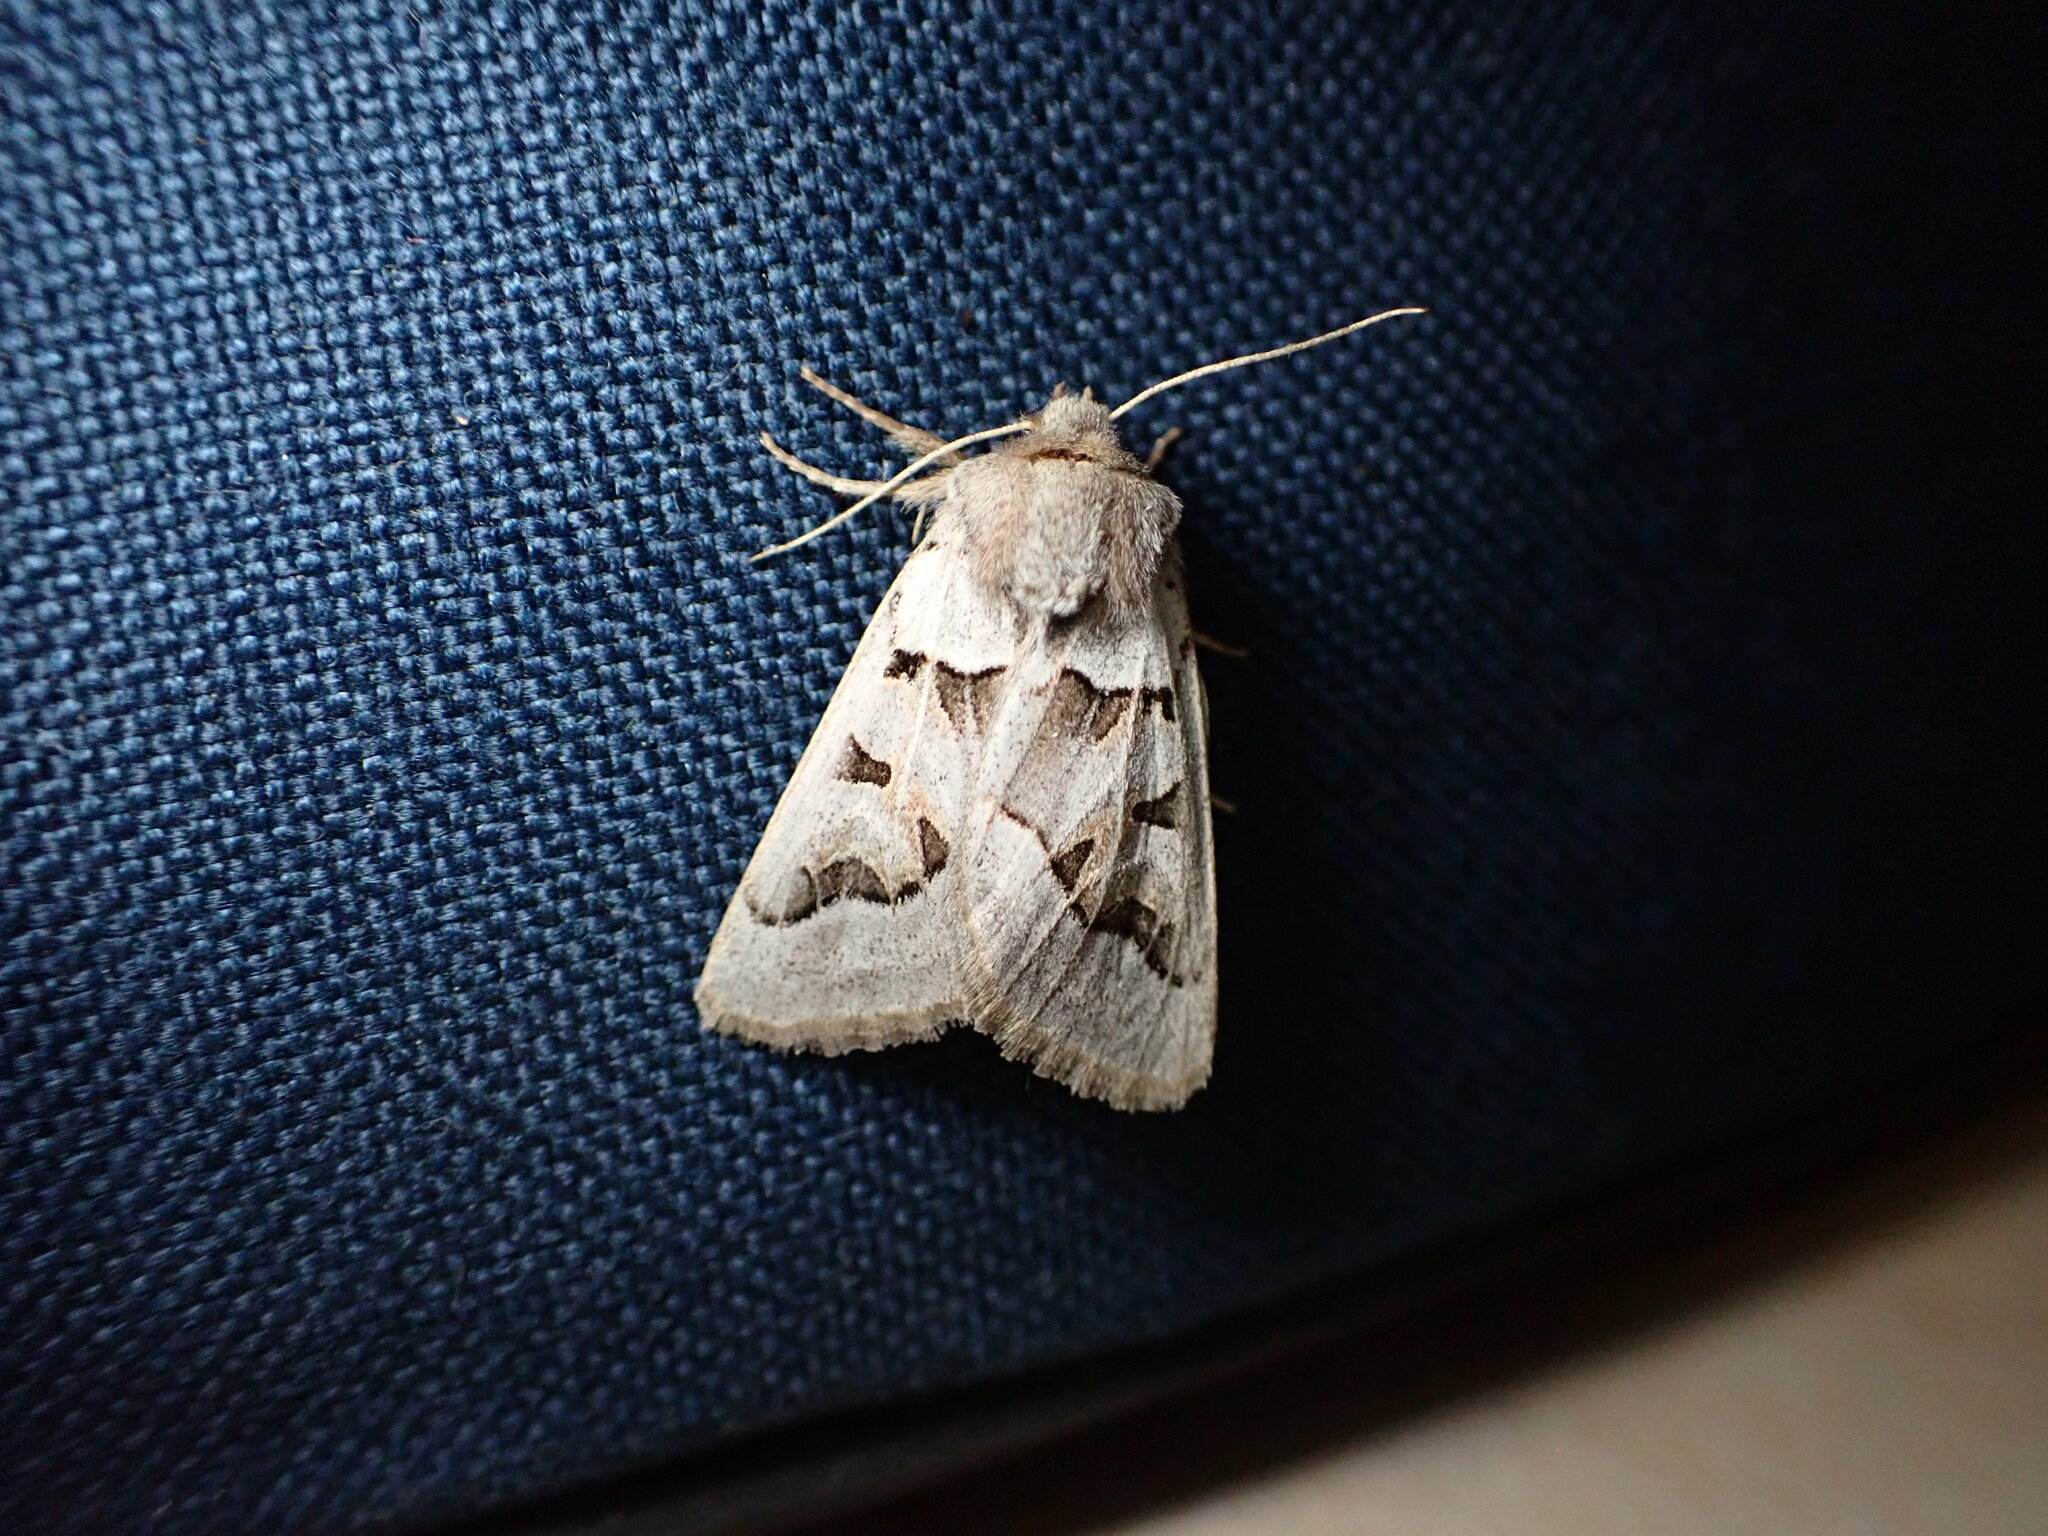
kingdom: Animalia
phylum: Arthropoda
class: Insecta
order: Lepidoptera
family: Noctuidae
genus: Episema
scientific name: Episema glaucina
